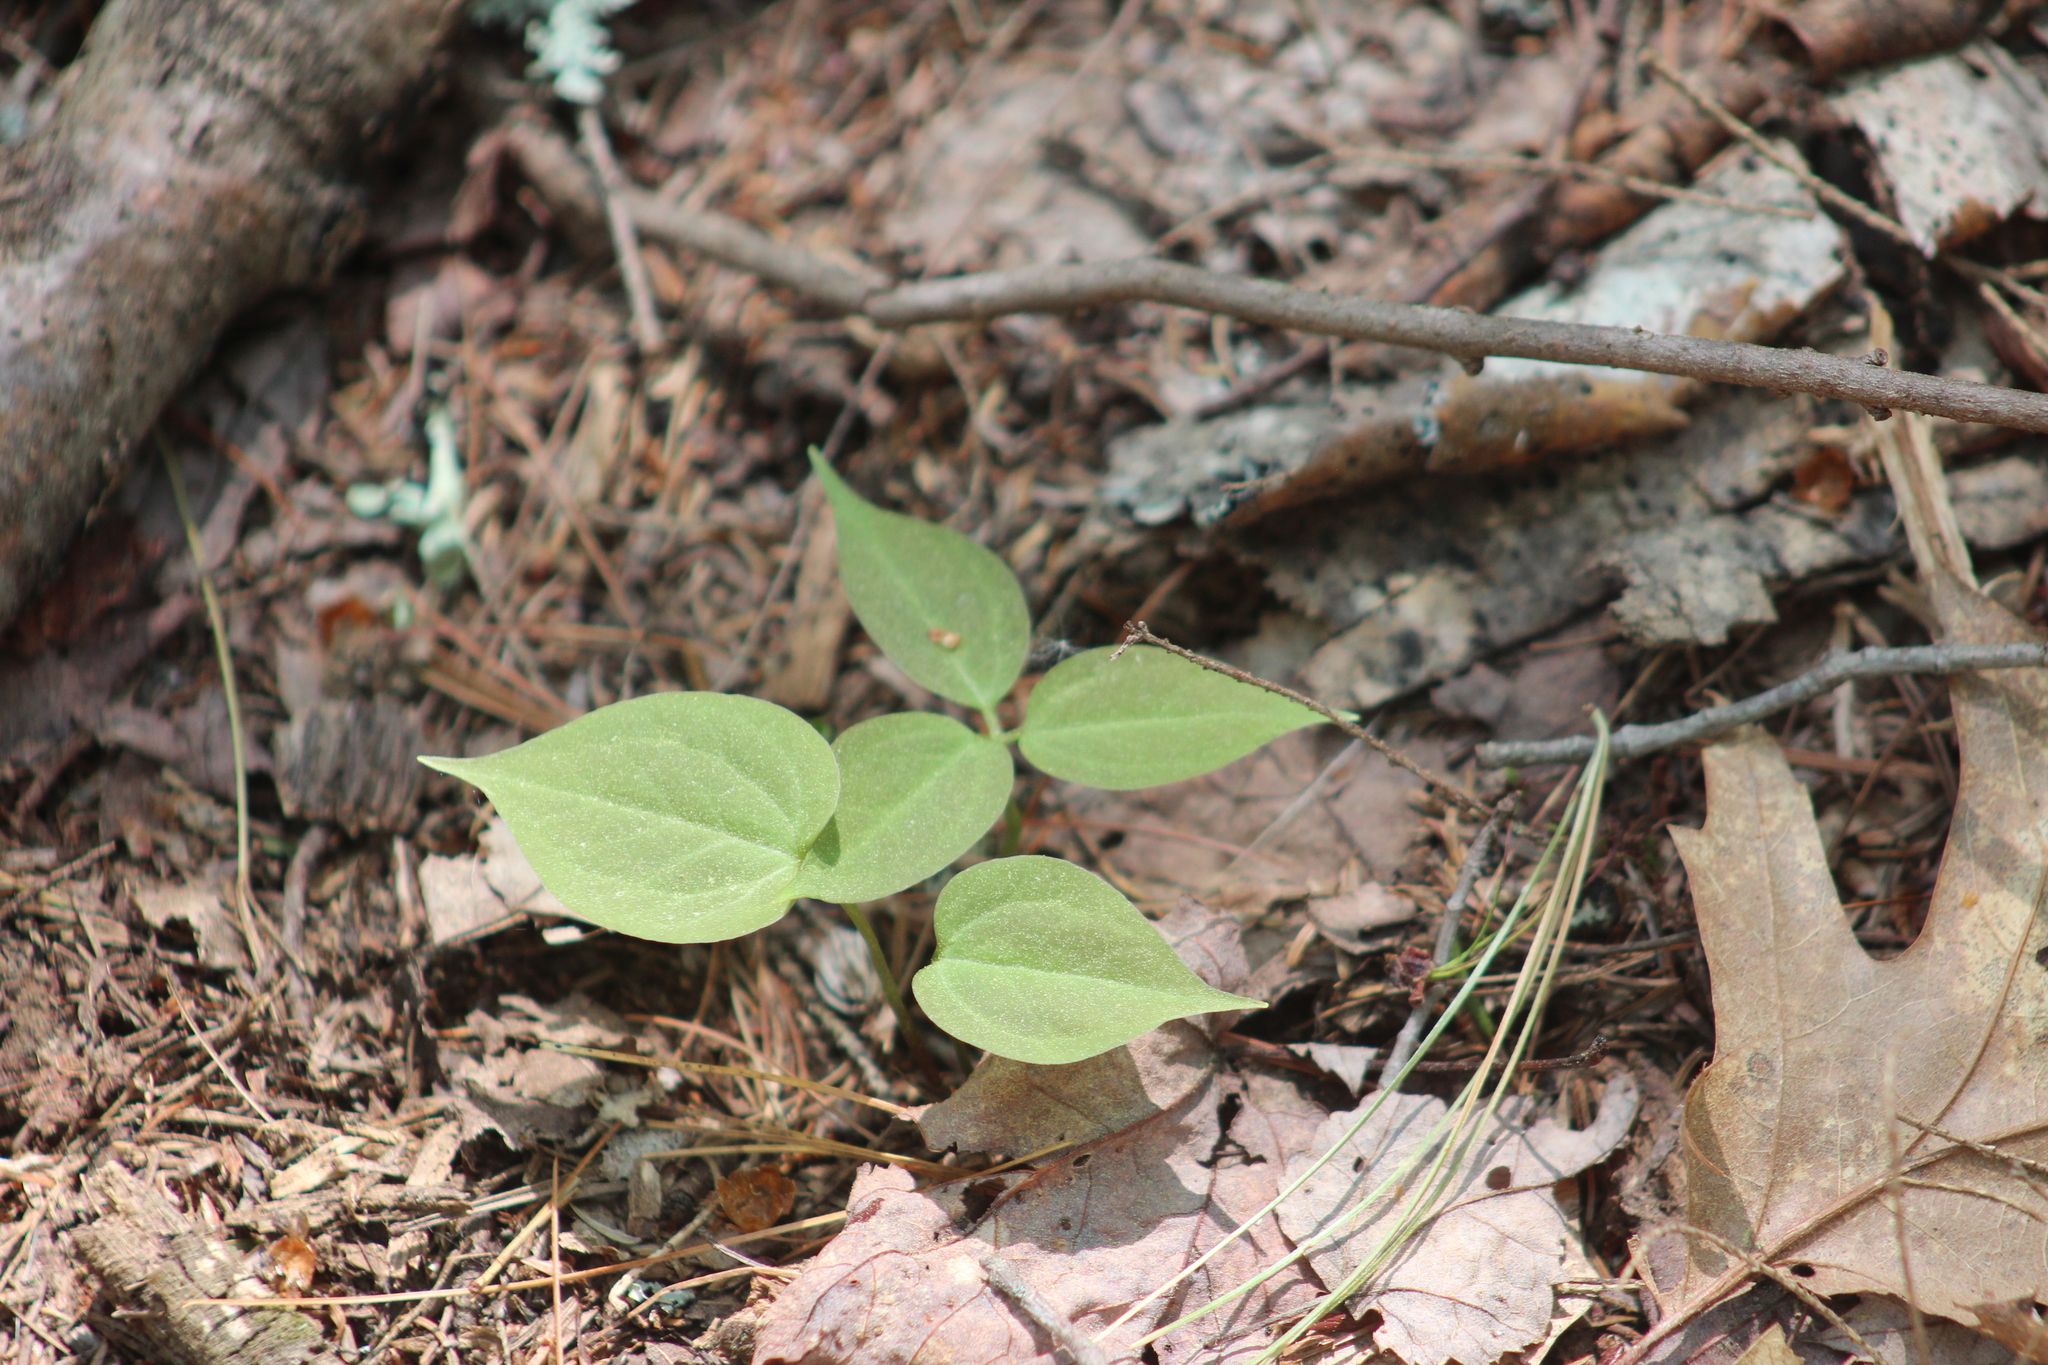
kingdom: Plantae
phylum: Tracheophyta
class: Liliopsida
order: Liliales
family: Melanthiaceae
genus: Trillium
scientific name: Trillium undulatum
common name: Paint trillium
